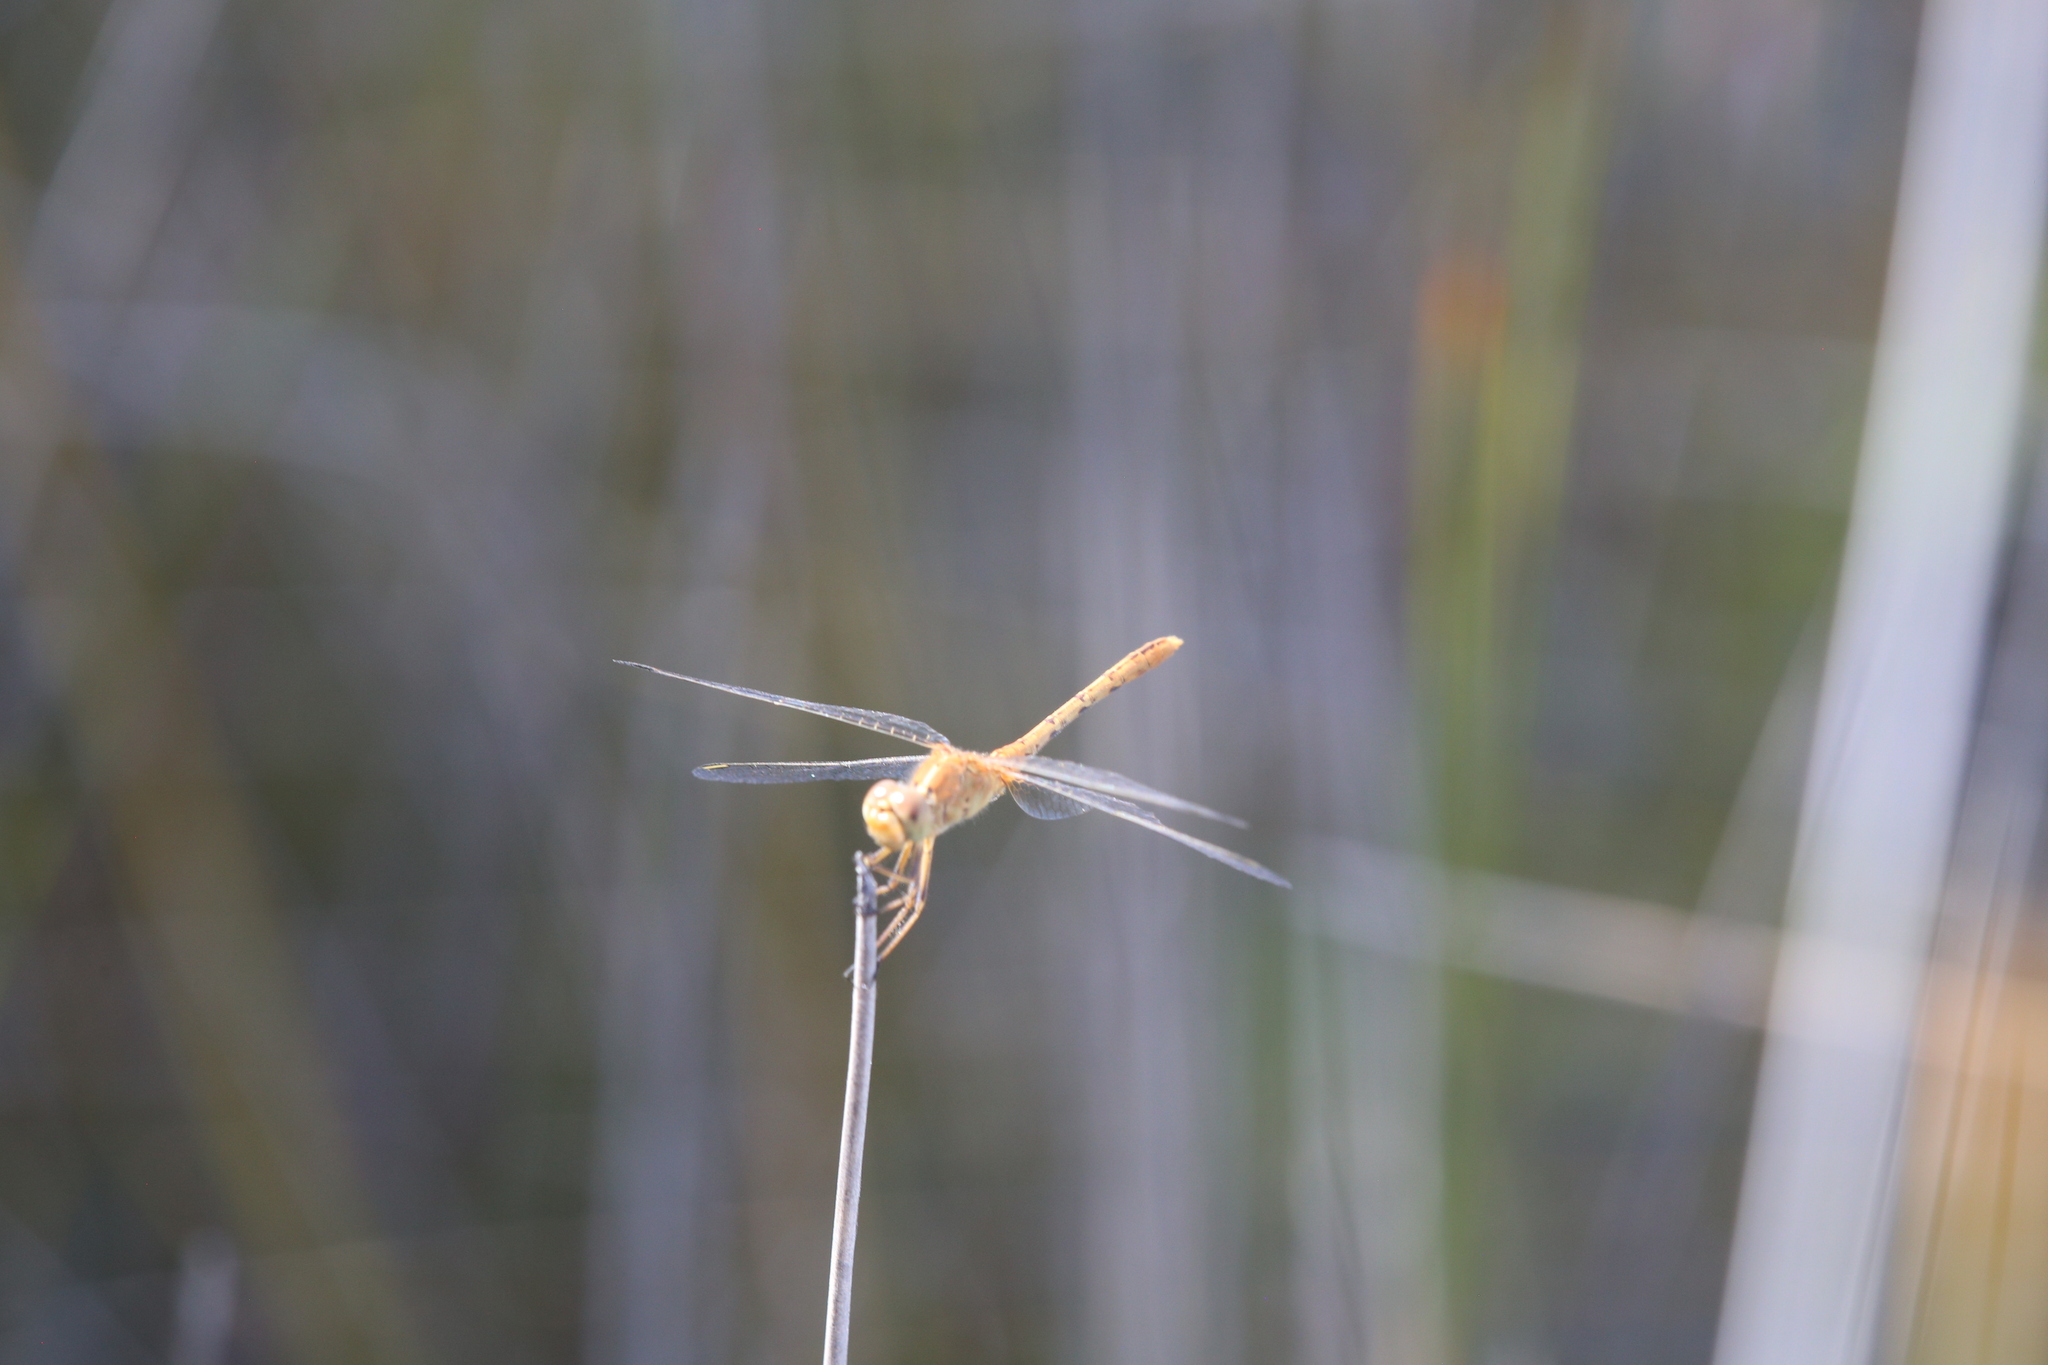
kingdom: Animalia
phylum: Arthropoda
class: Insecta
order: Odonata
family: Libellulidae
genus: Diplacodes
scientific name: Diplacodes bipunctata
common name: Red percher dragonfly
